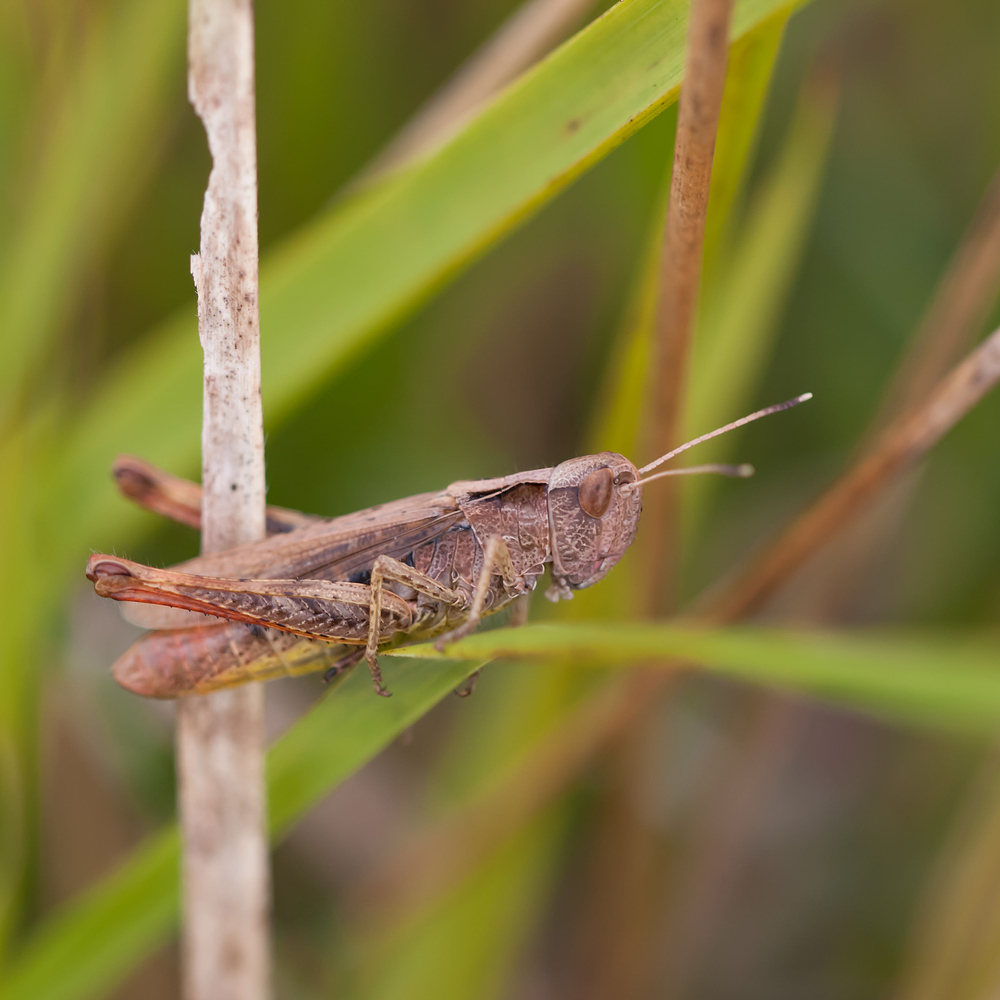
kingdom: Animalia
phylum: Arthropoda
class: Insecta
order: Orthoptera
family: Acrididae
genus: Gomphocerippus
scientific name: Gomphocerippus rufus
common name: Rufous grasshopper
